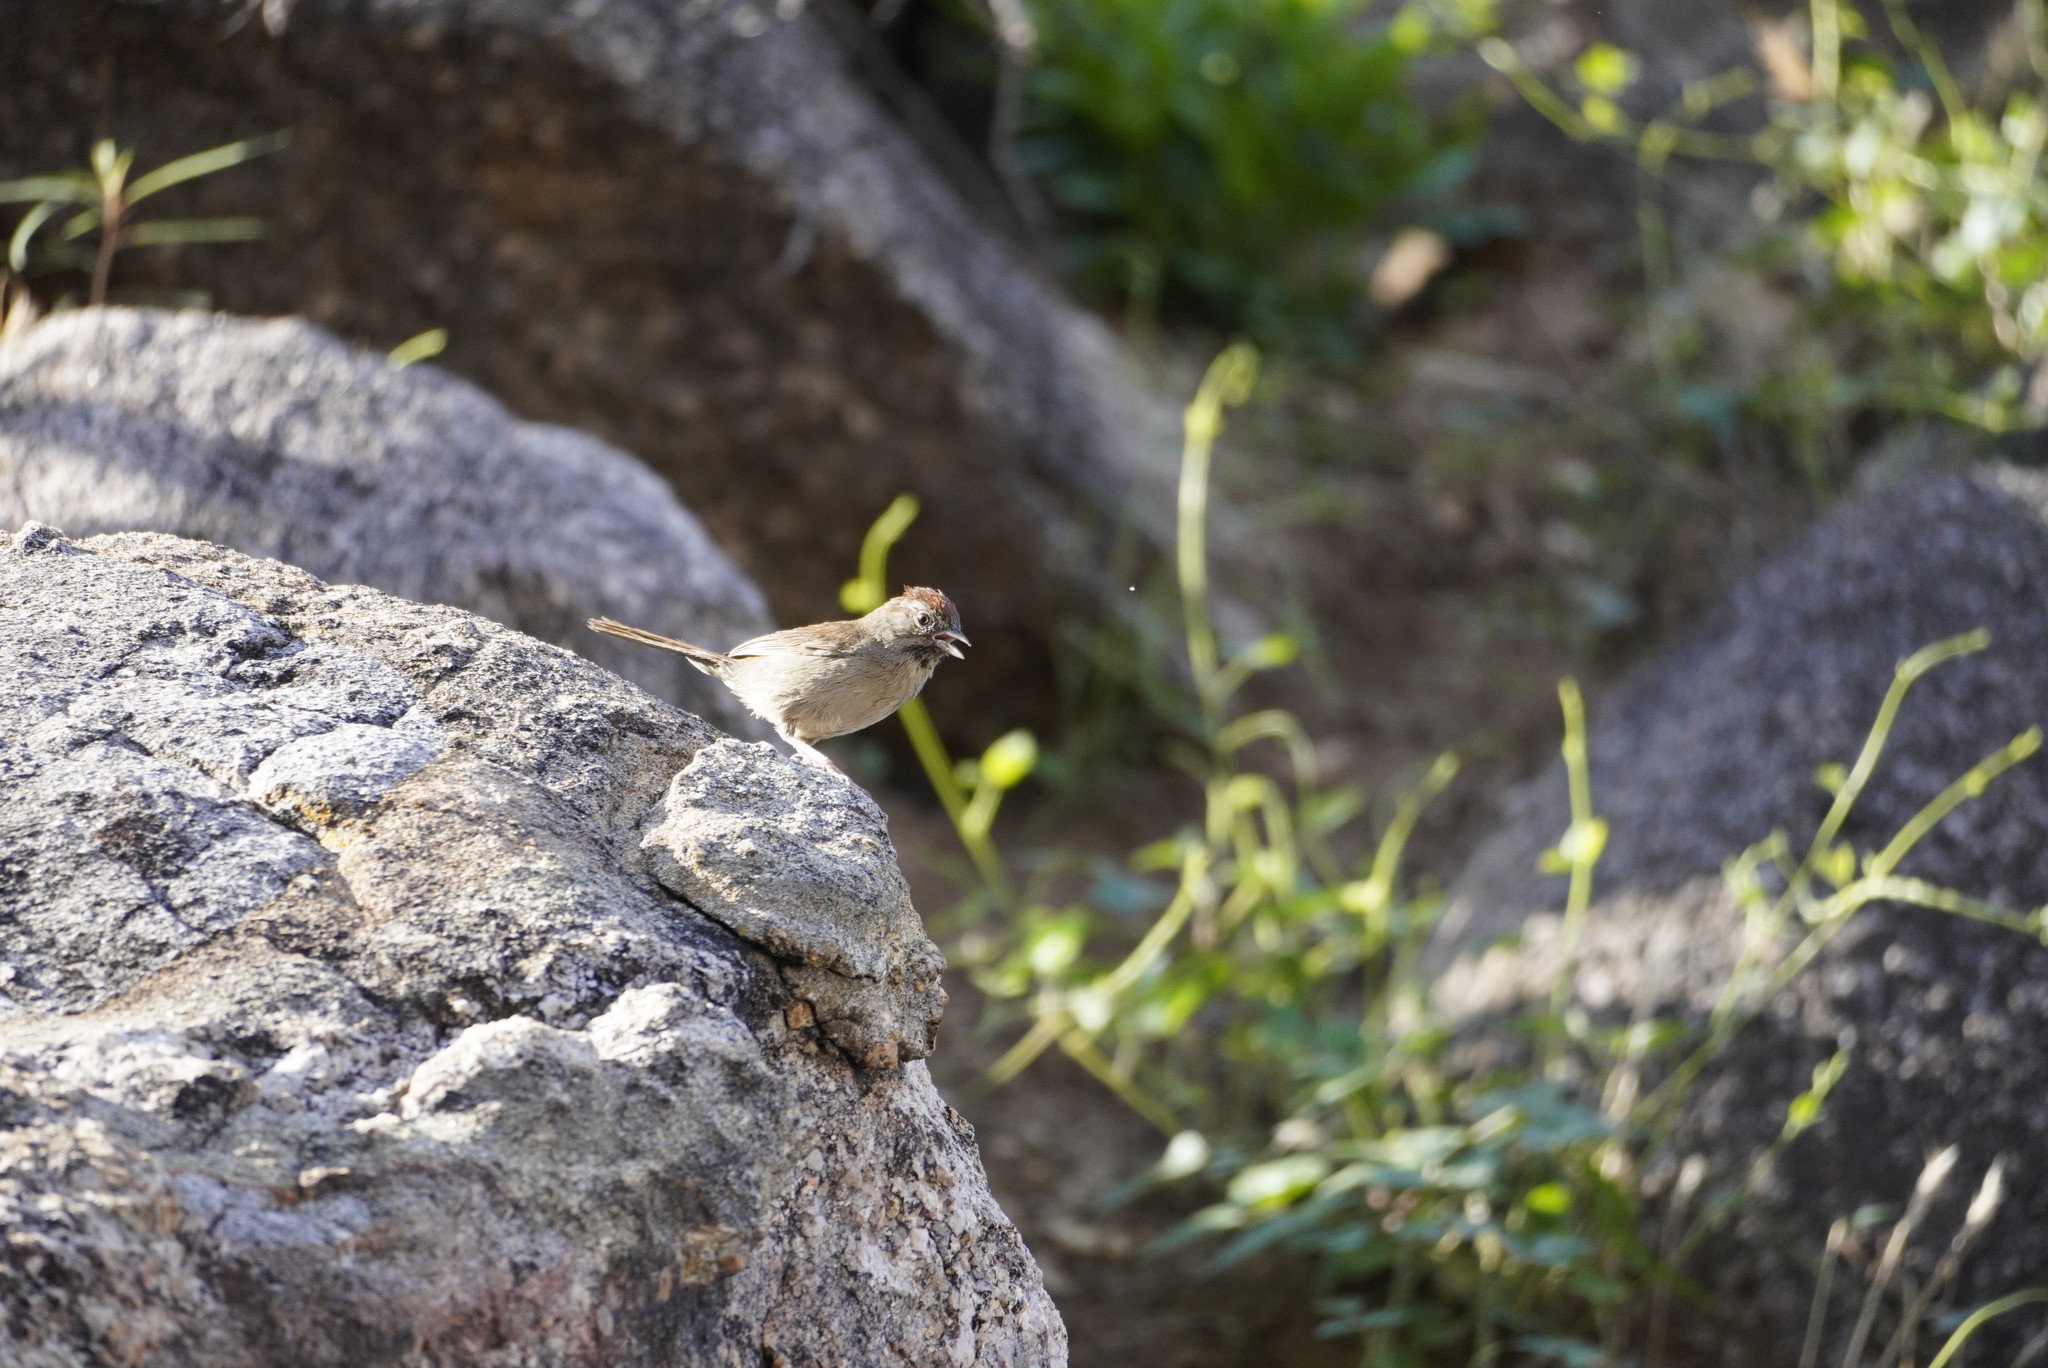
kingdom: Animalia
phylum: Chordata
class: Aves
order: Passeriformes
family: Passerellidae
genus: Aimophila
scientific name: Aimophila ruficeps
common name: Rufous-crowned sparrow
